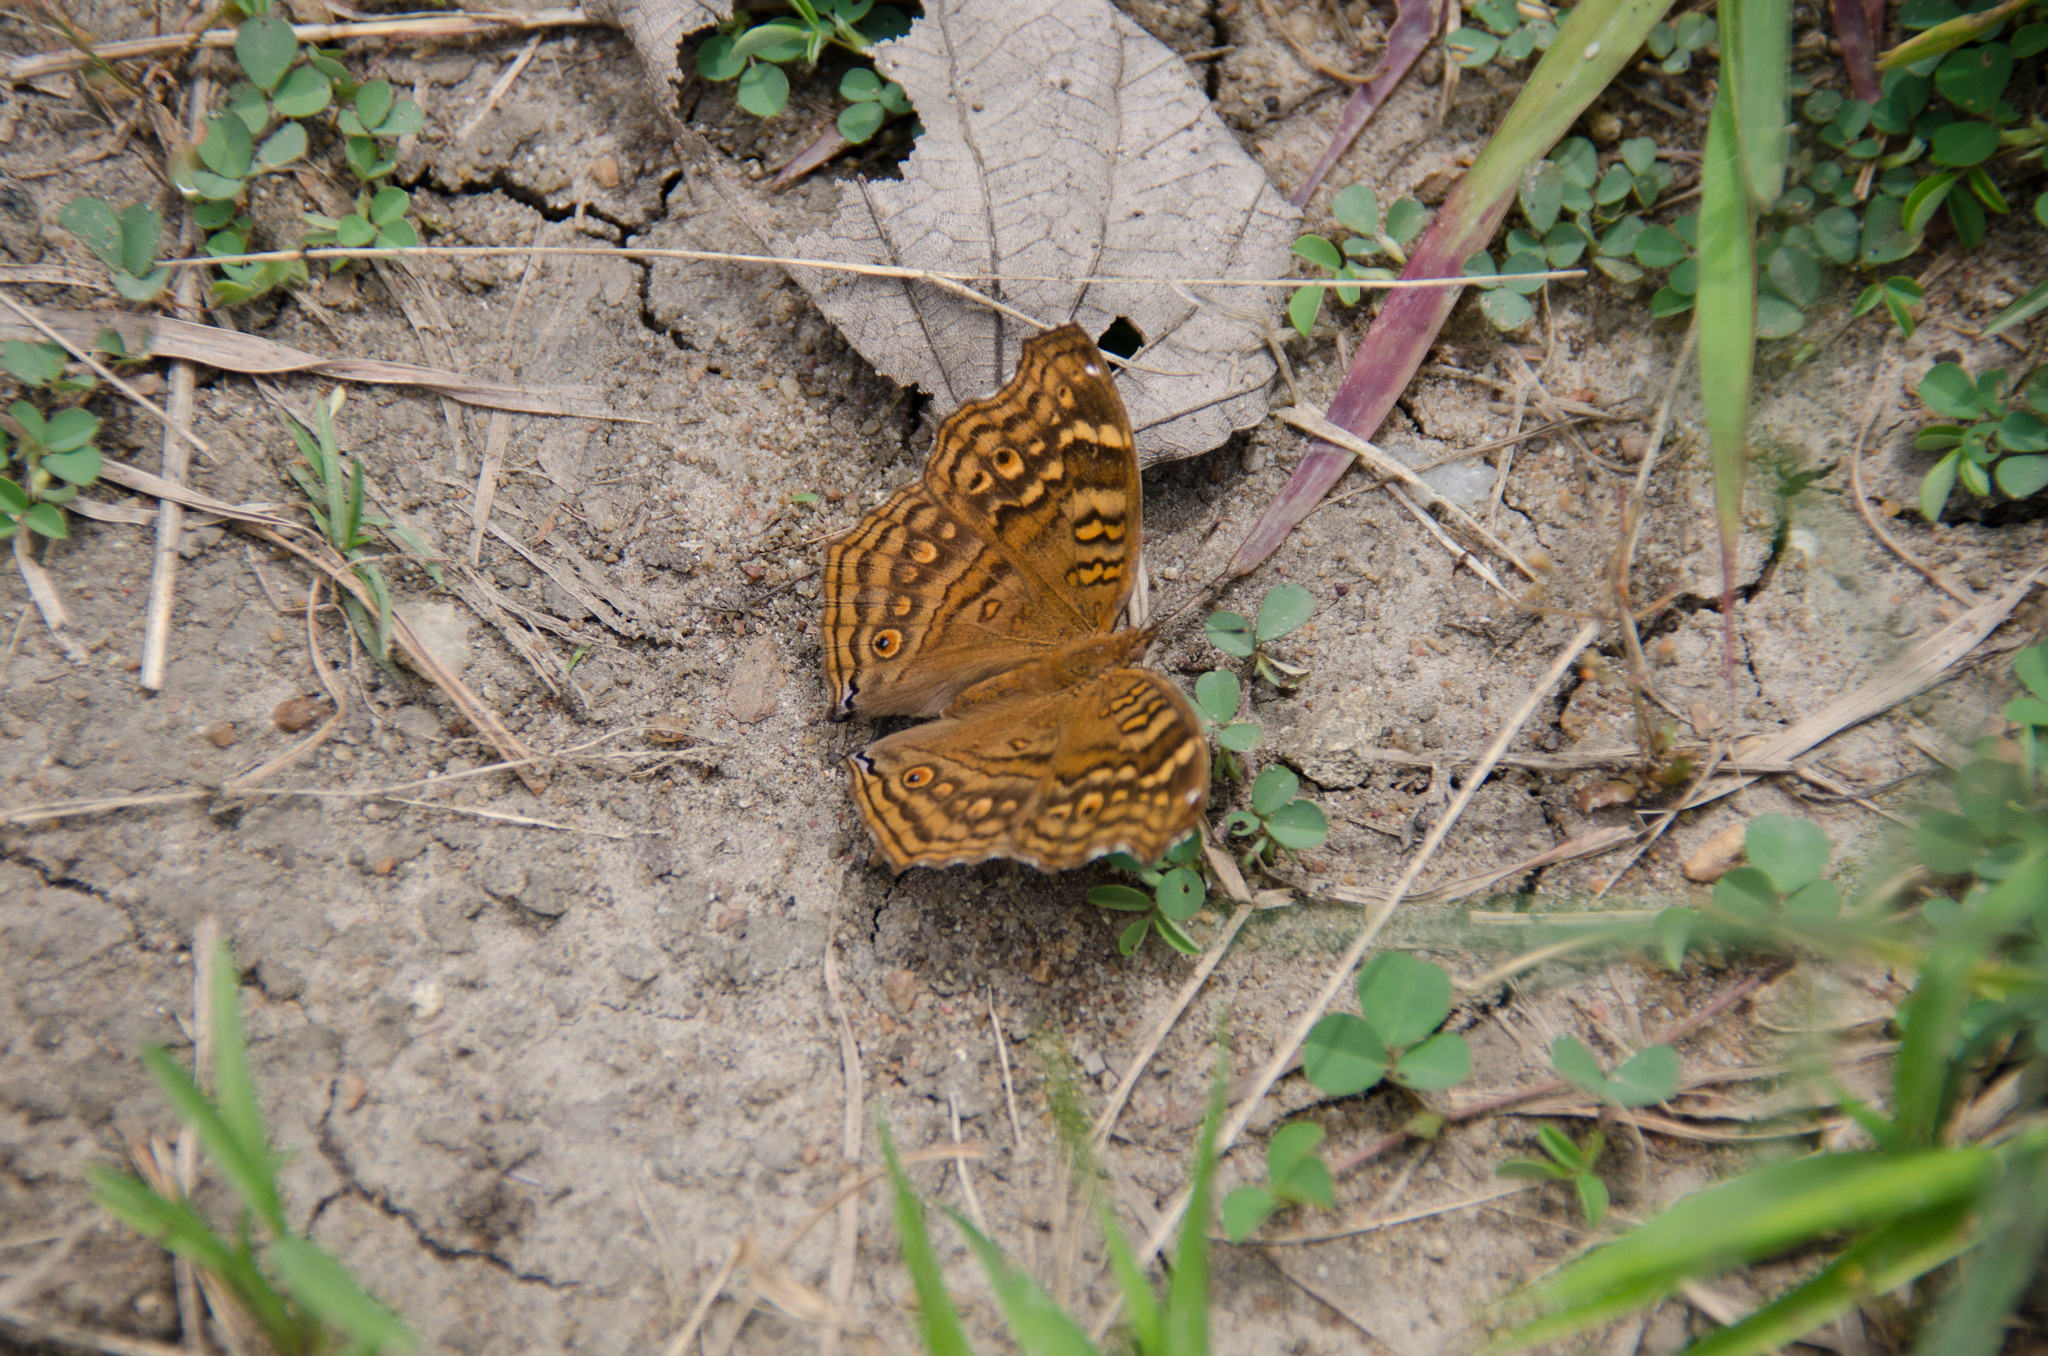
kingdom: Animalia
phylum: Arthropoda
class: Insecta
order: Lepidoptera
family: Nymphalidae
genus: Junonia
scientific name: Junonia chorimene
